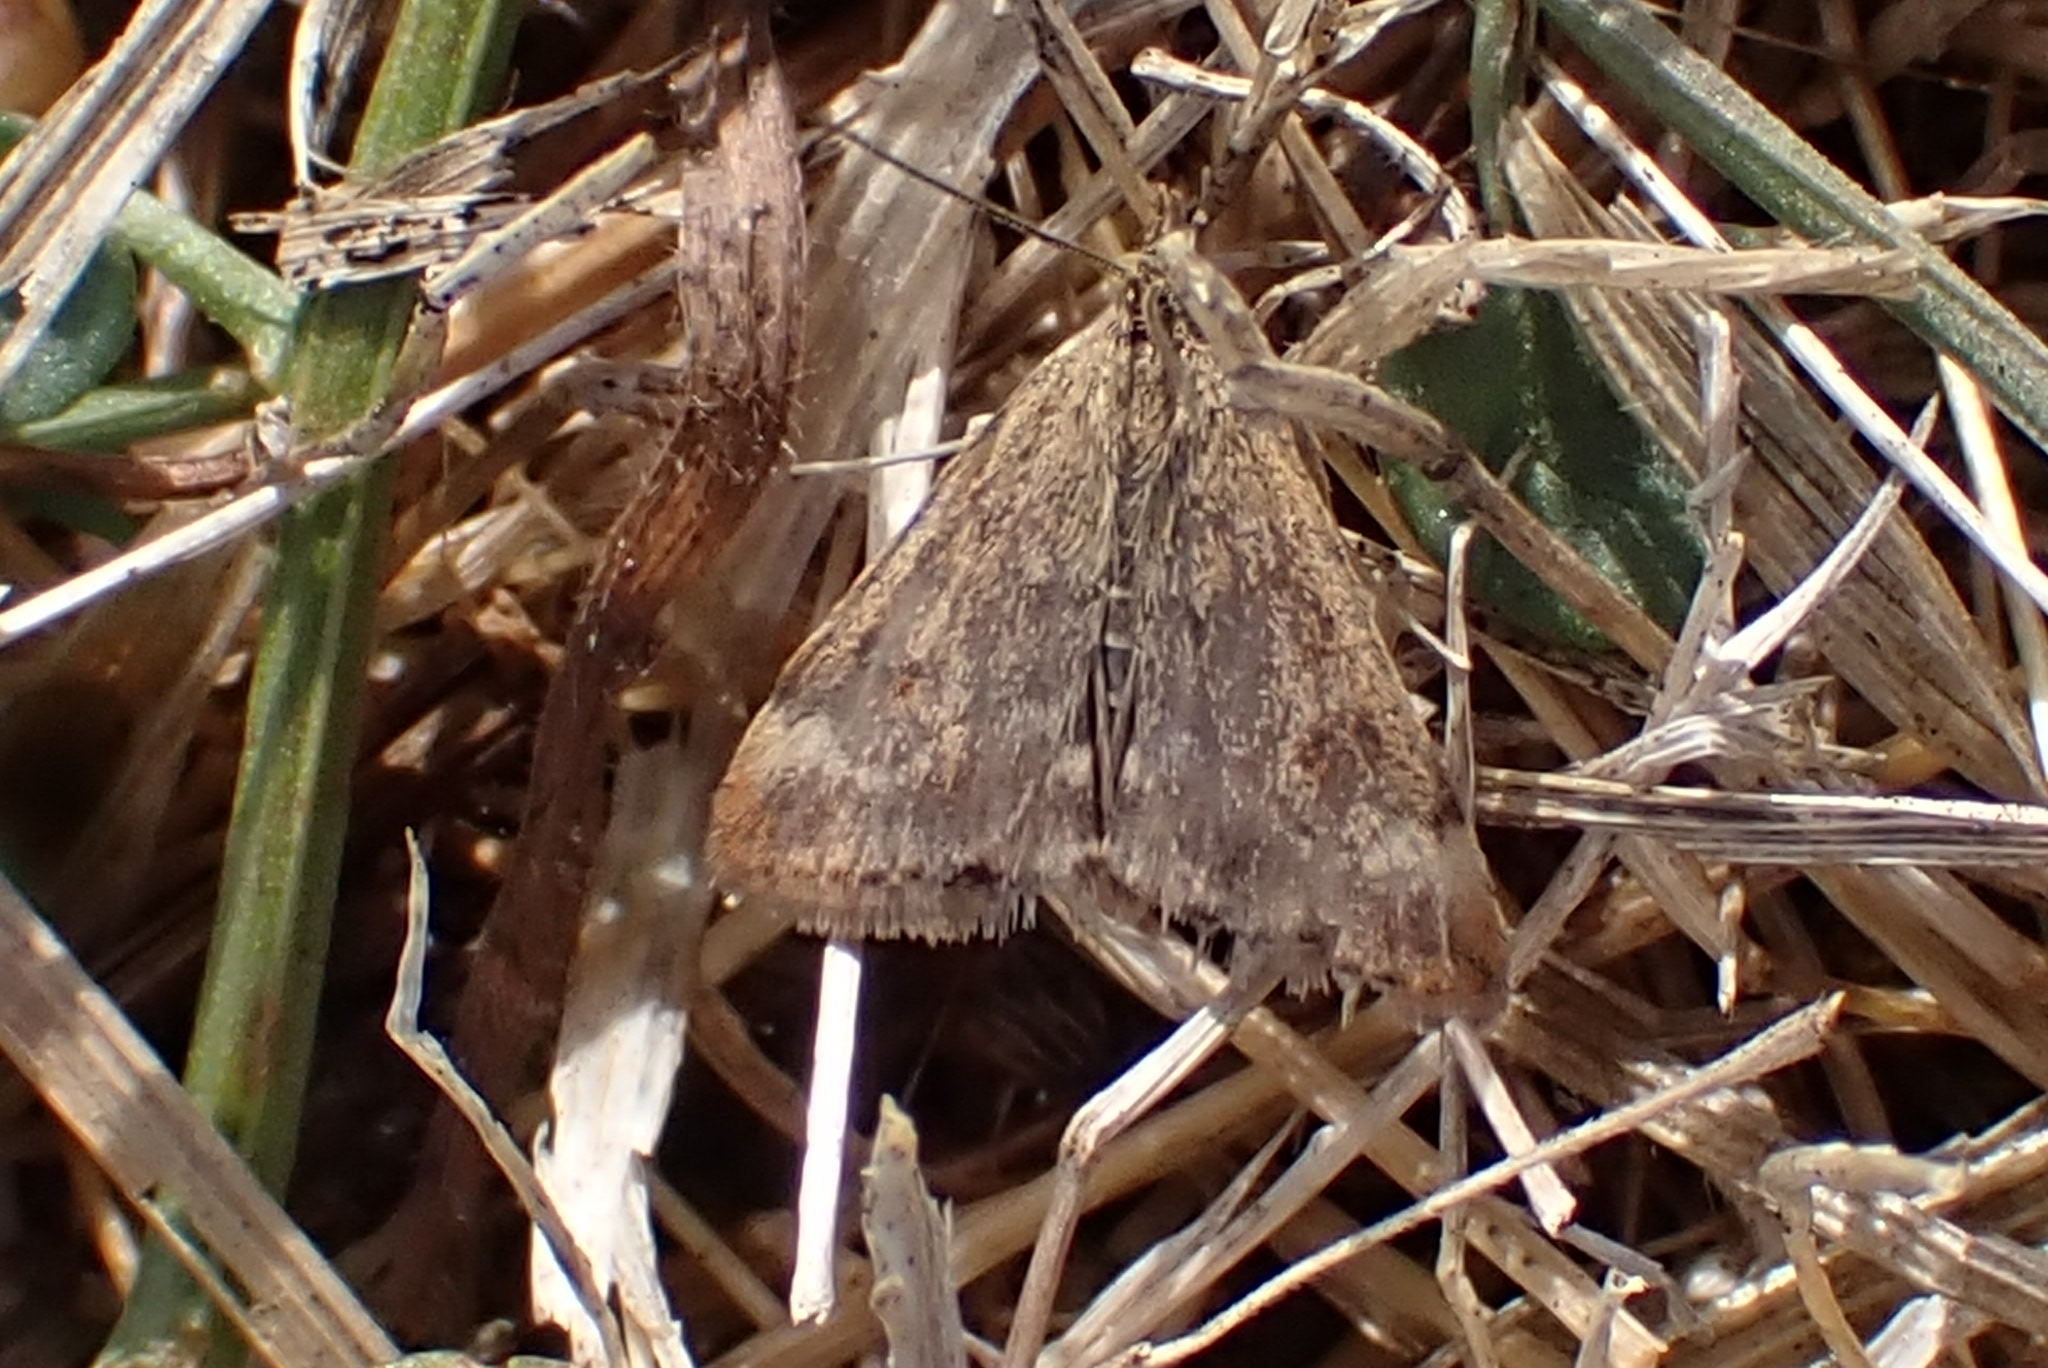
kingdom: Animalia
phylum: Arthropoda
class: Insecta
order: Lepidoptera
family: Crambidae
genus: Pyrausta
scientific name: Pyrausta despicata
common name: Straw-barred pearl
